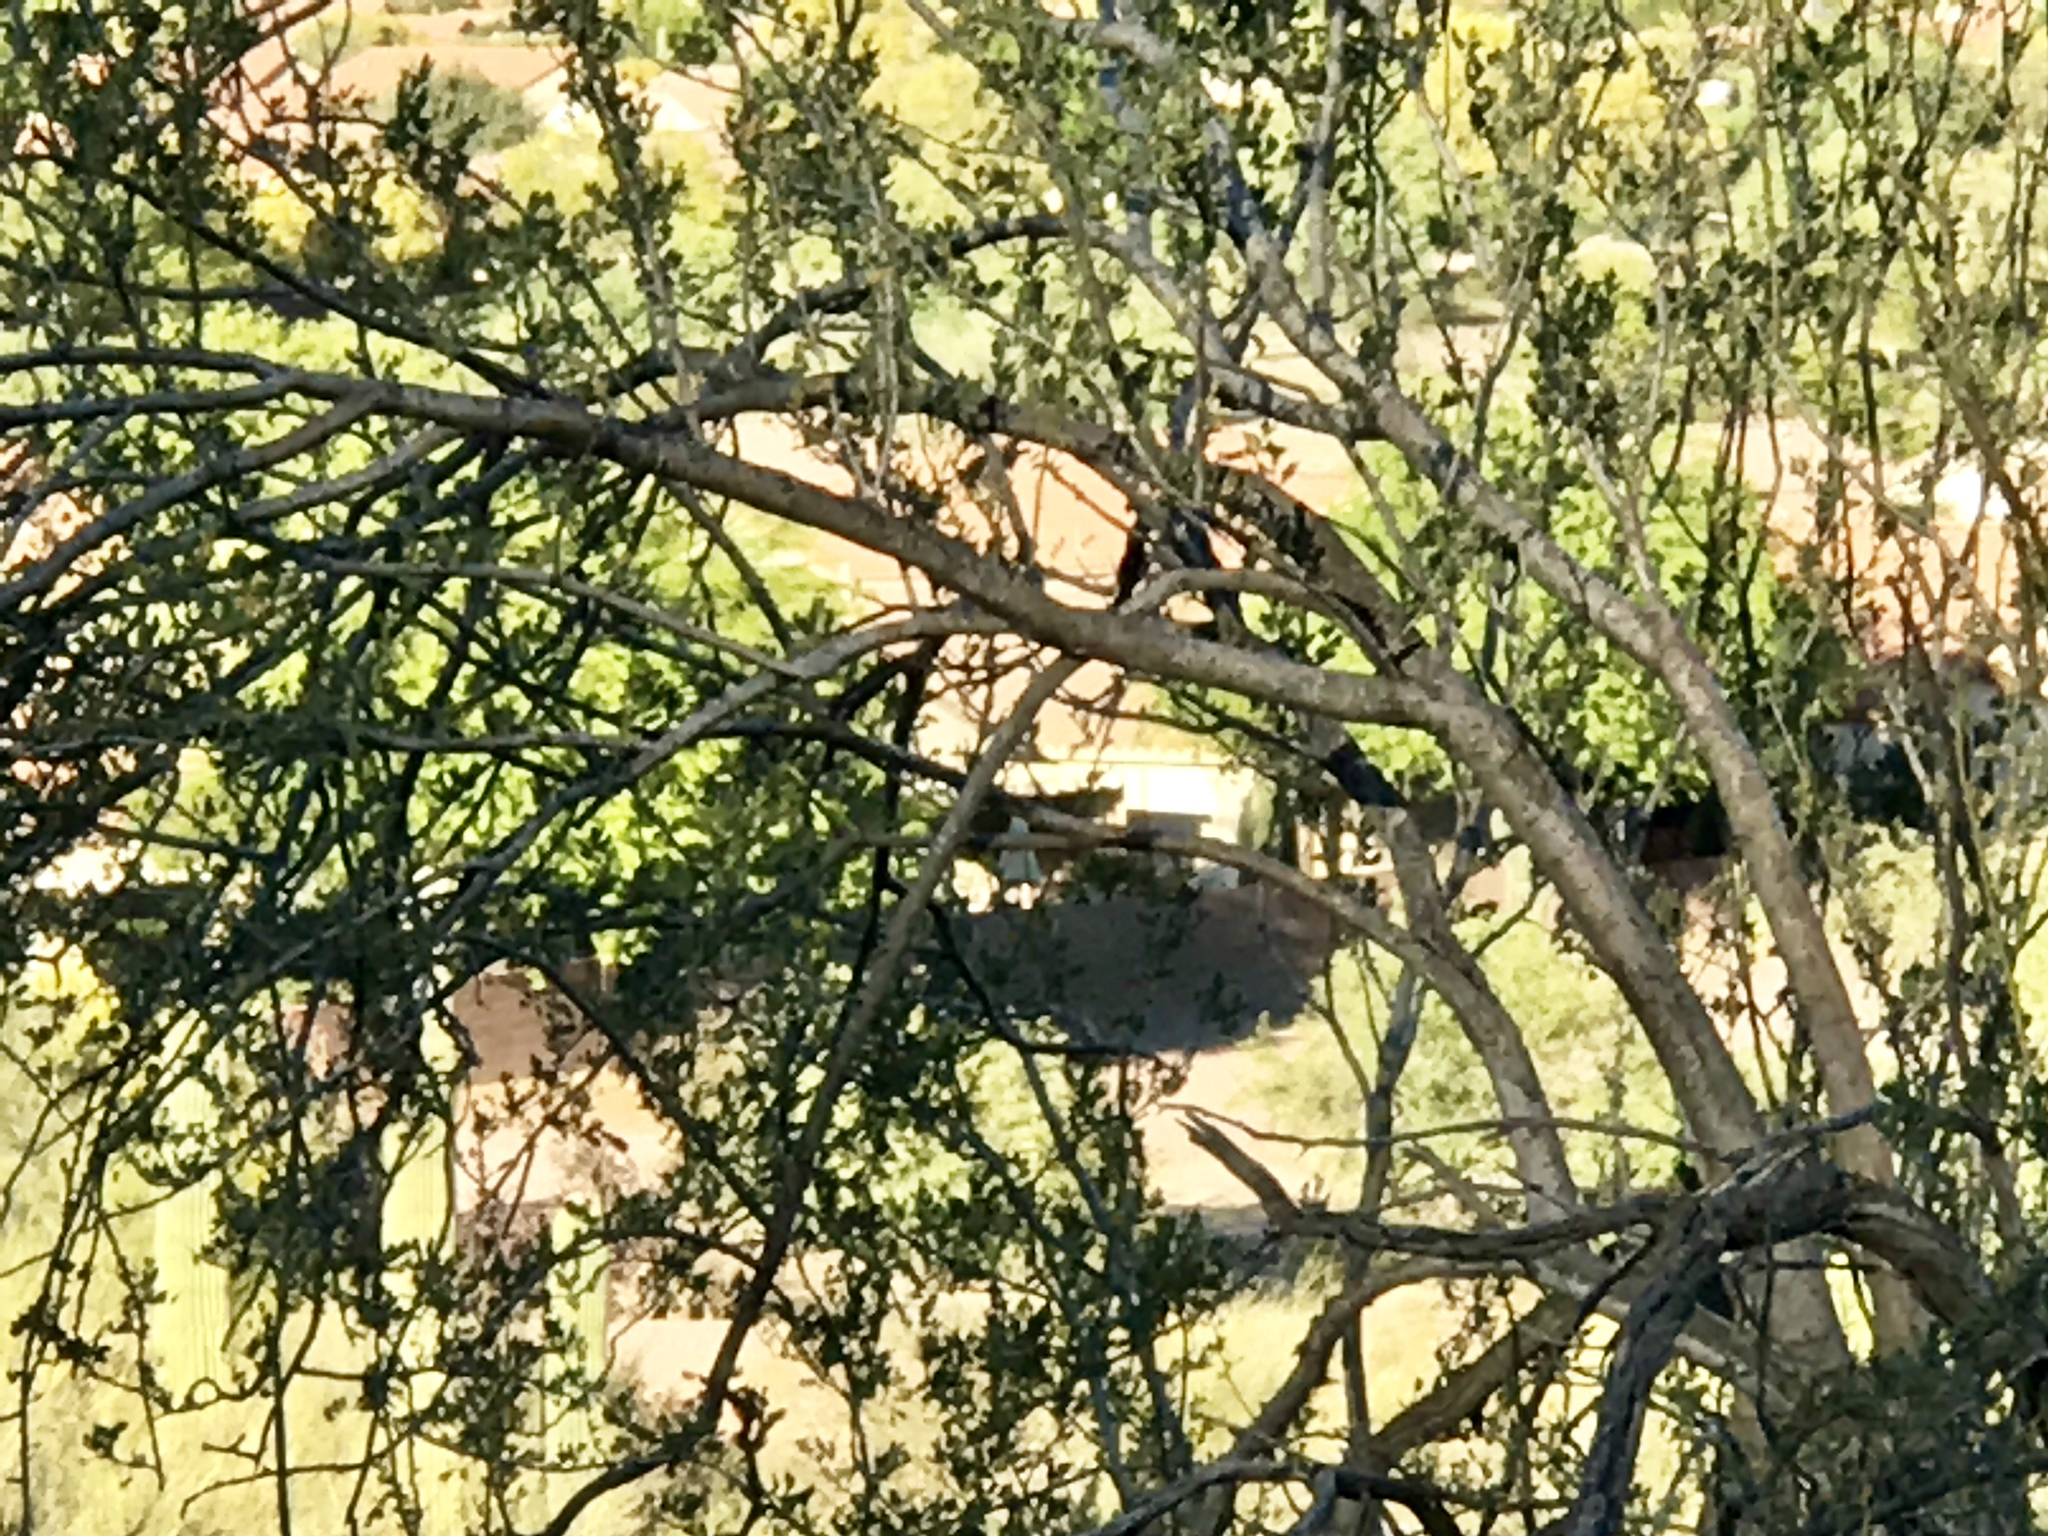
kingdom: Plantae
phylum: Tracheophyta
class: Magnoliopsida
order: Fabales
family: Fabaceae
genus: Olneya
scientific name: Olneya tesota
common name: Desert ironwood
